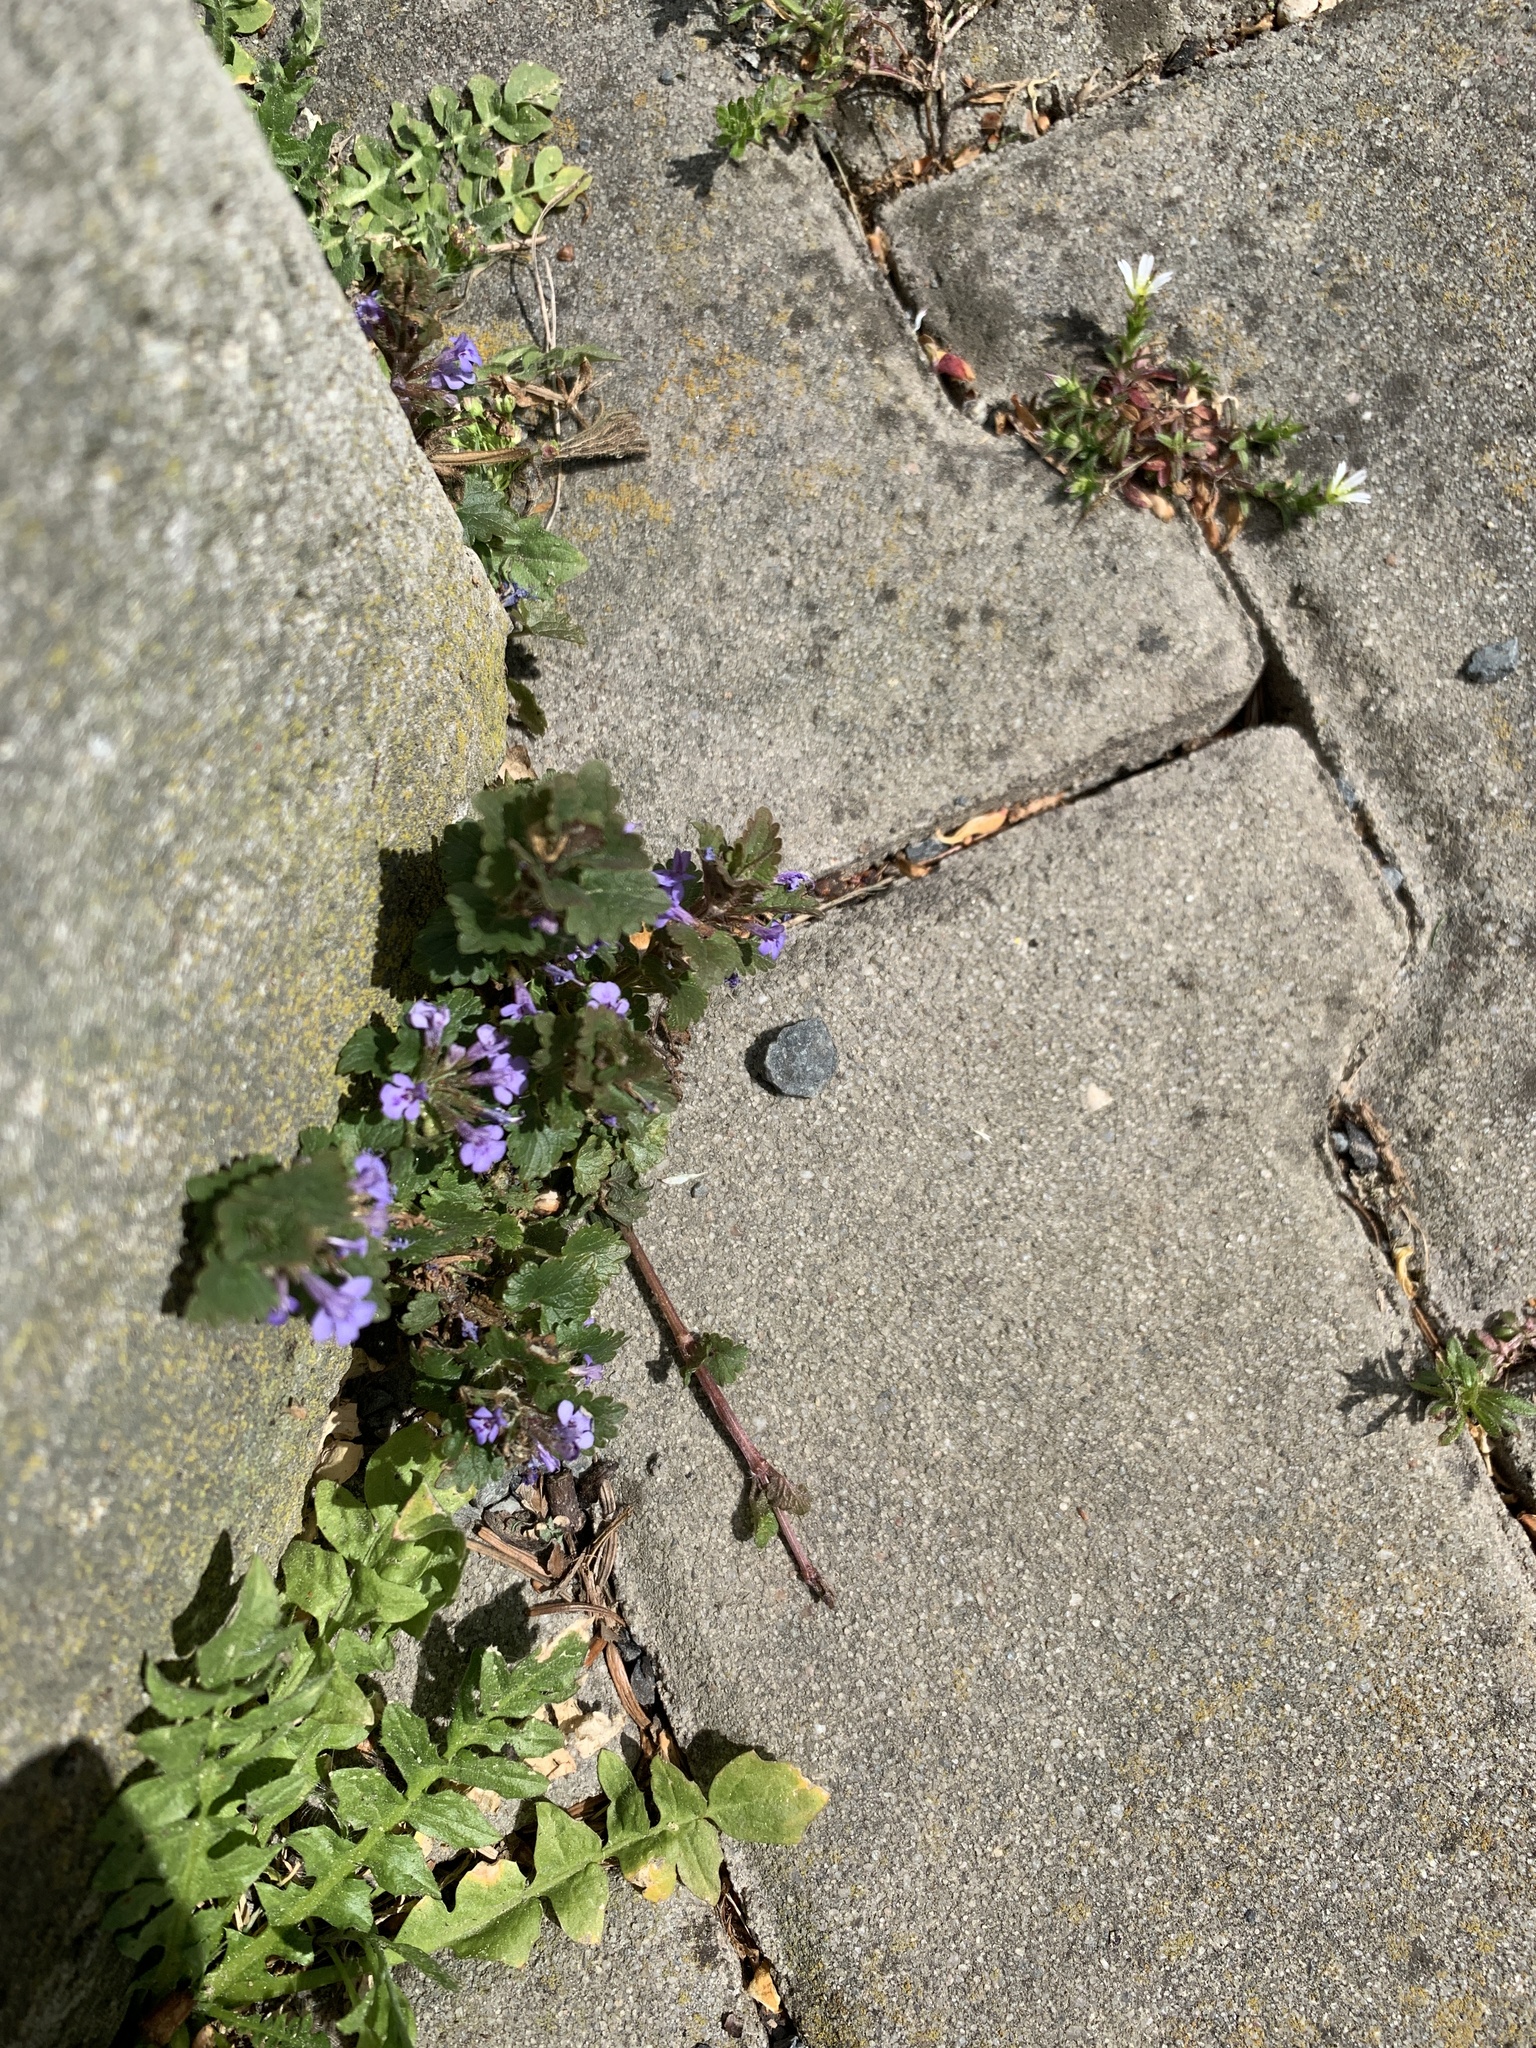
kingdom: Plantae
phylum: Tracheophyta
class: Magnoliopsida
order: Lamiales
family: Lamiaceae
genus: Glechoma
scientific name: Glechoma hederacea
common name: Ground ivy
